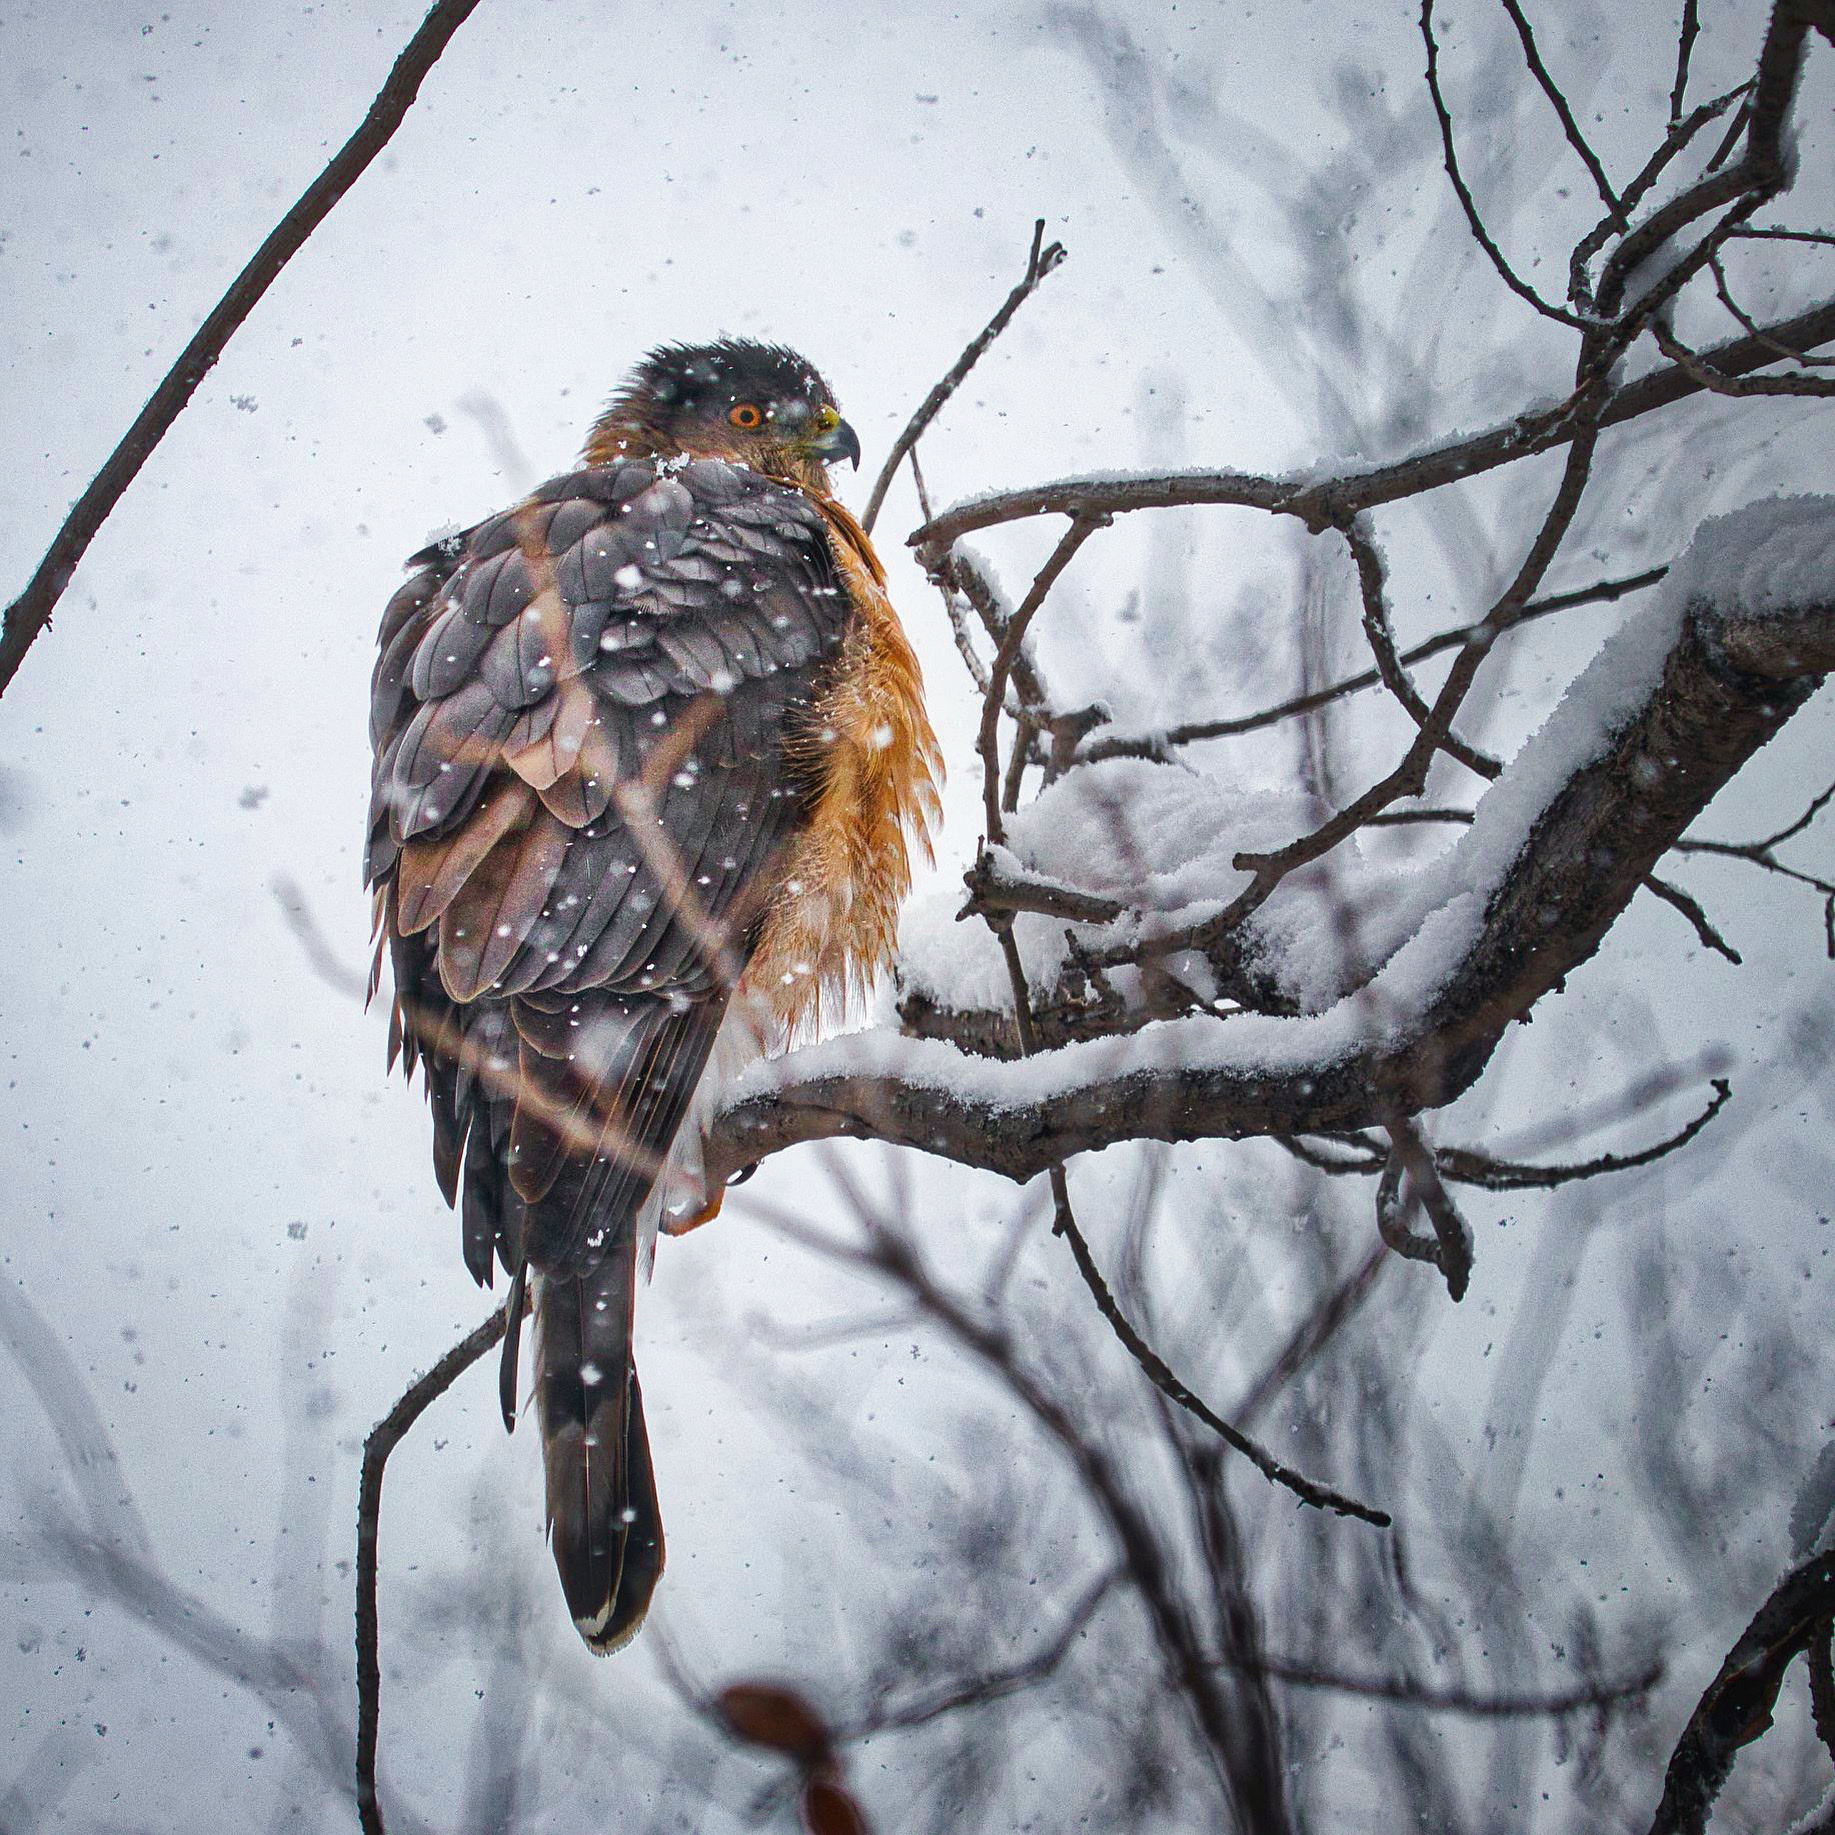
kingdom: Animalia
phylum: Chordata
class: Aves
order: Accipitriformes
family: Accipitridae
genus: Accipiter
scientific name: Accipiter cooperii
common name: Cooper's hawk
